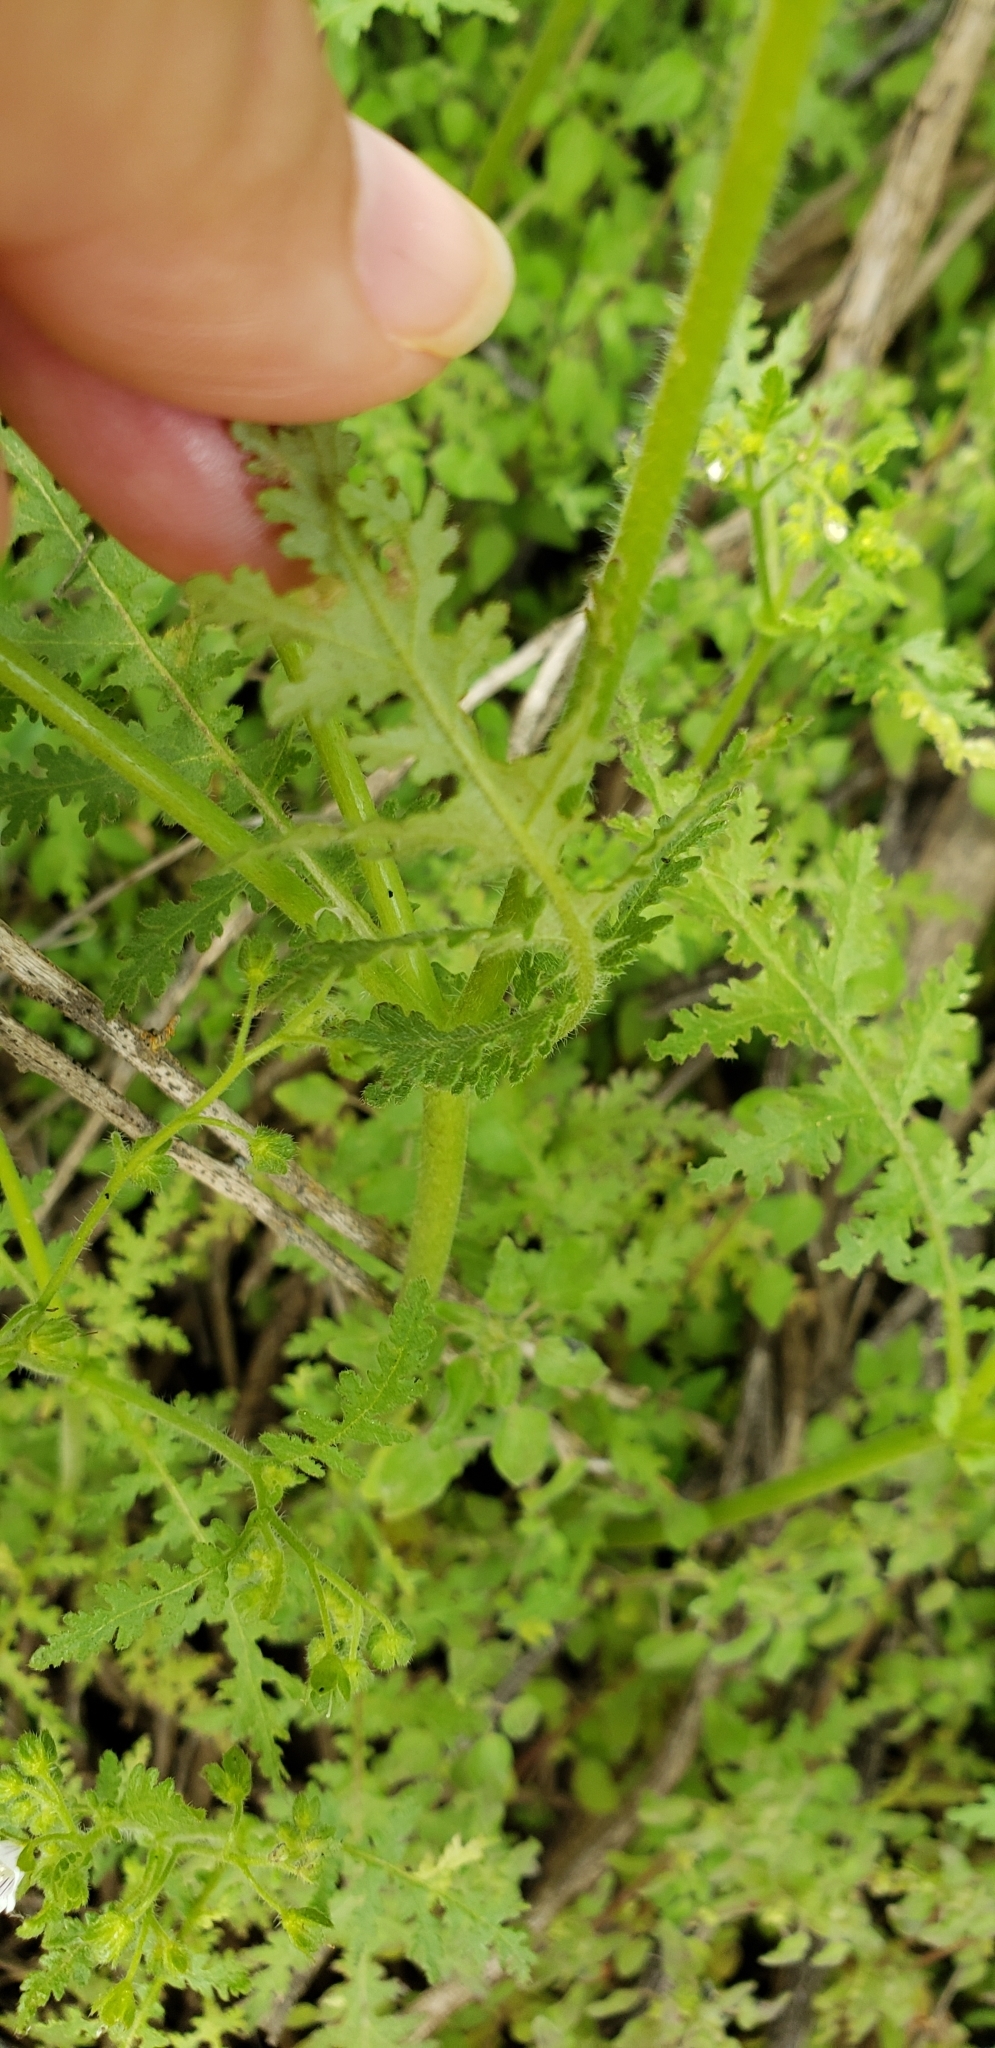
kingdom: Plantae
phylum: Tracheophyta
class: Magnoliopsida
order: Boraginales
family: Hydrophyllaceae
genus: Eucrypta
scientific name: Eucrypta chrysanthemifolia
